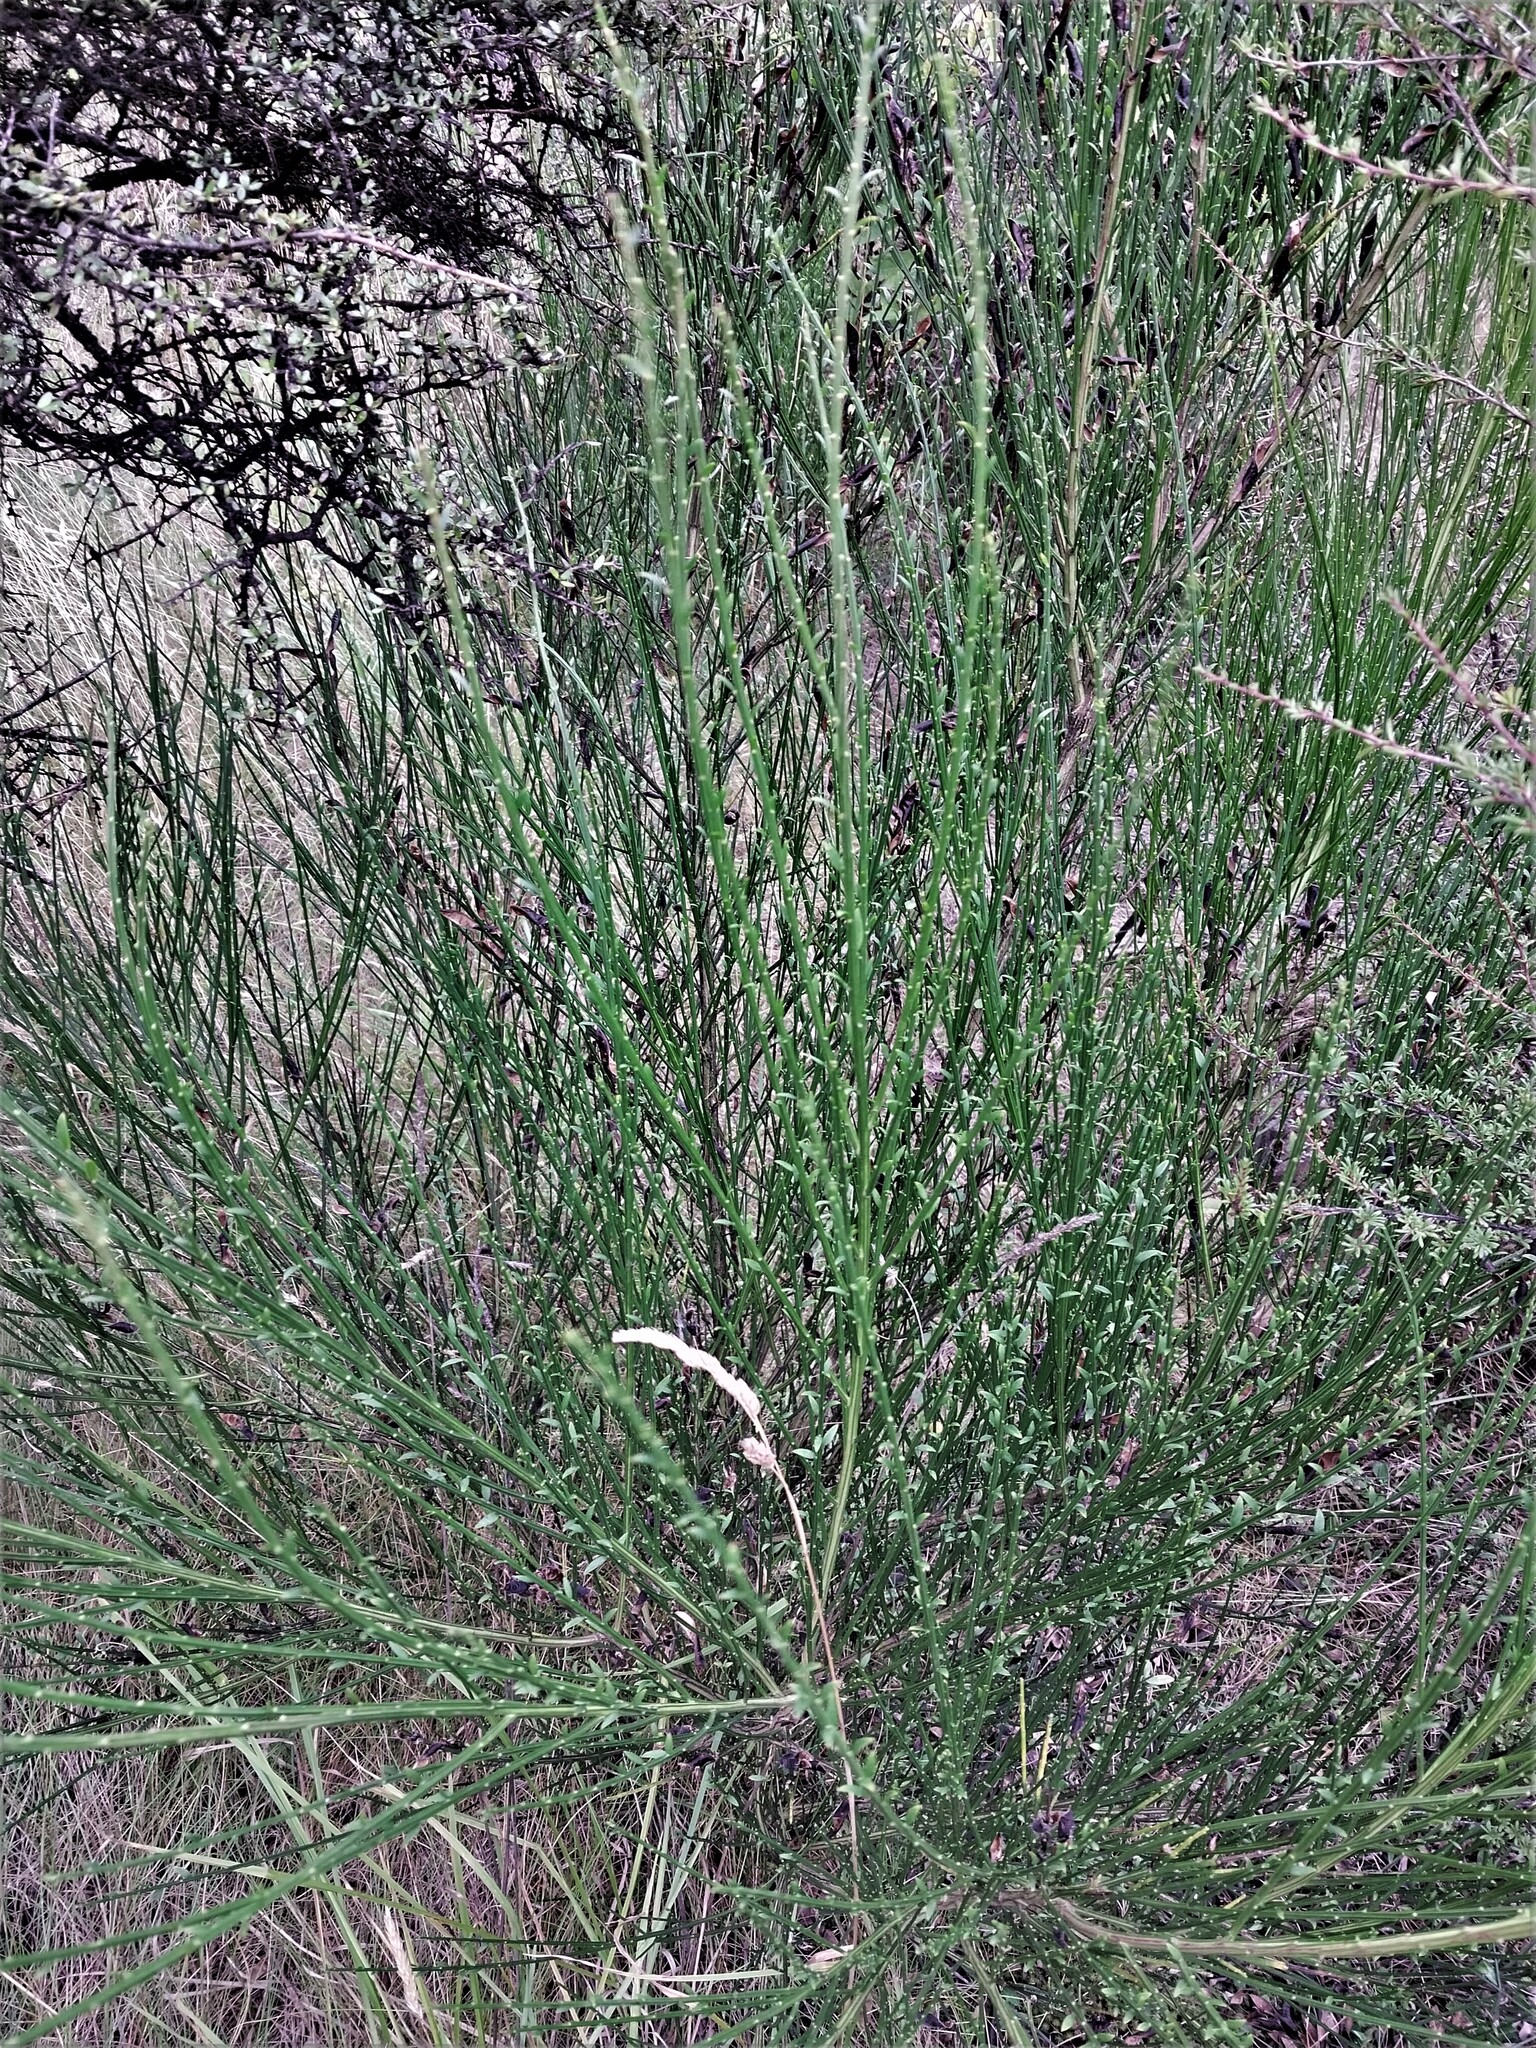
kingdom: Plantae
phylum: Tracheophyta
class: Magnoliopsida
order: Fabales
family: Fabaceae
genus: Cytisus
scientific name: Cytisus scoparius
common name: Scotch broom
